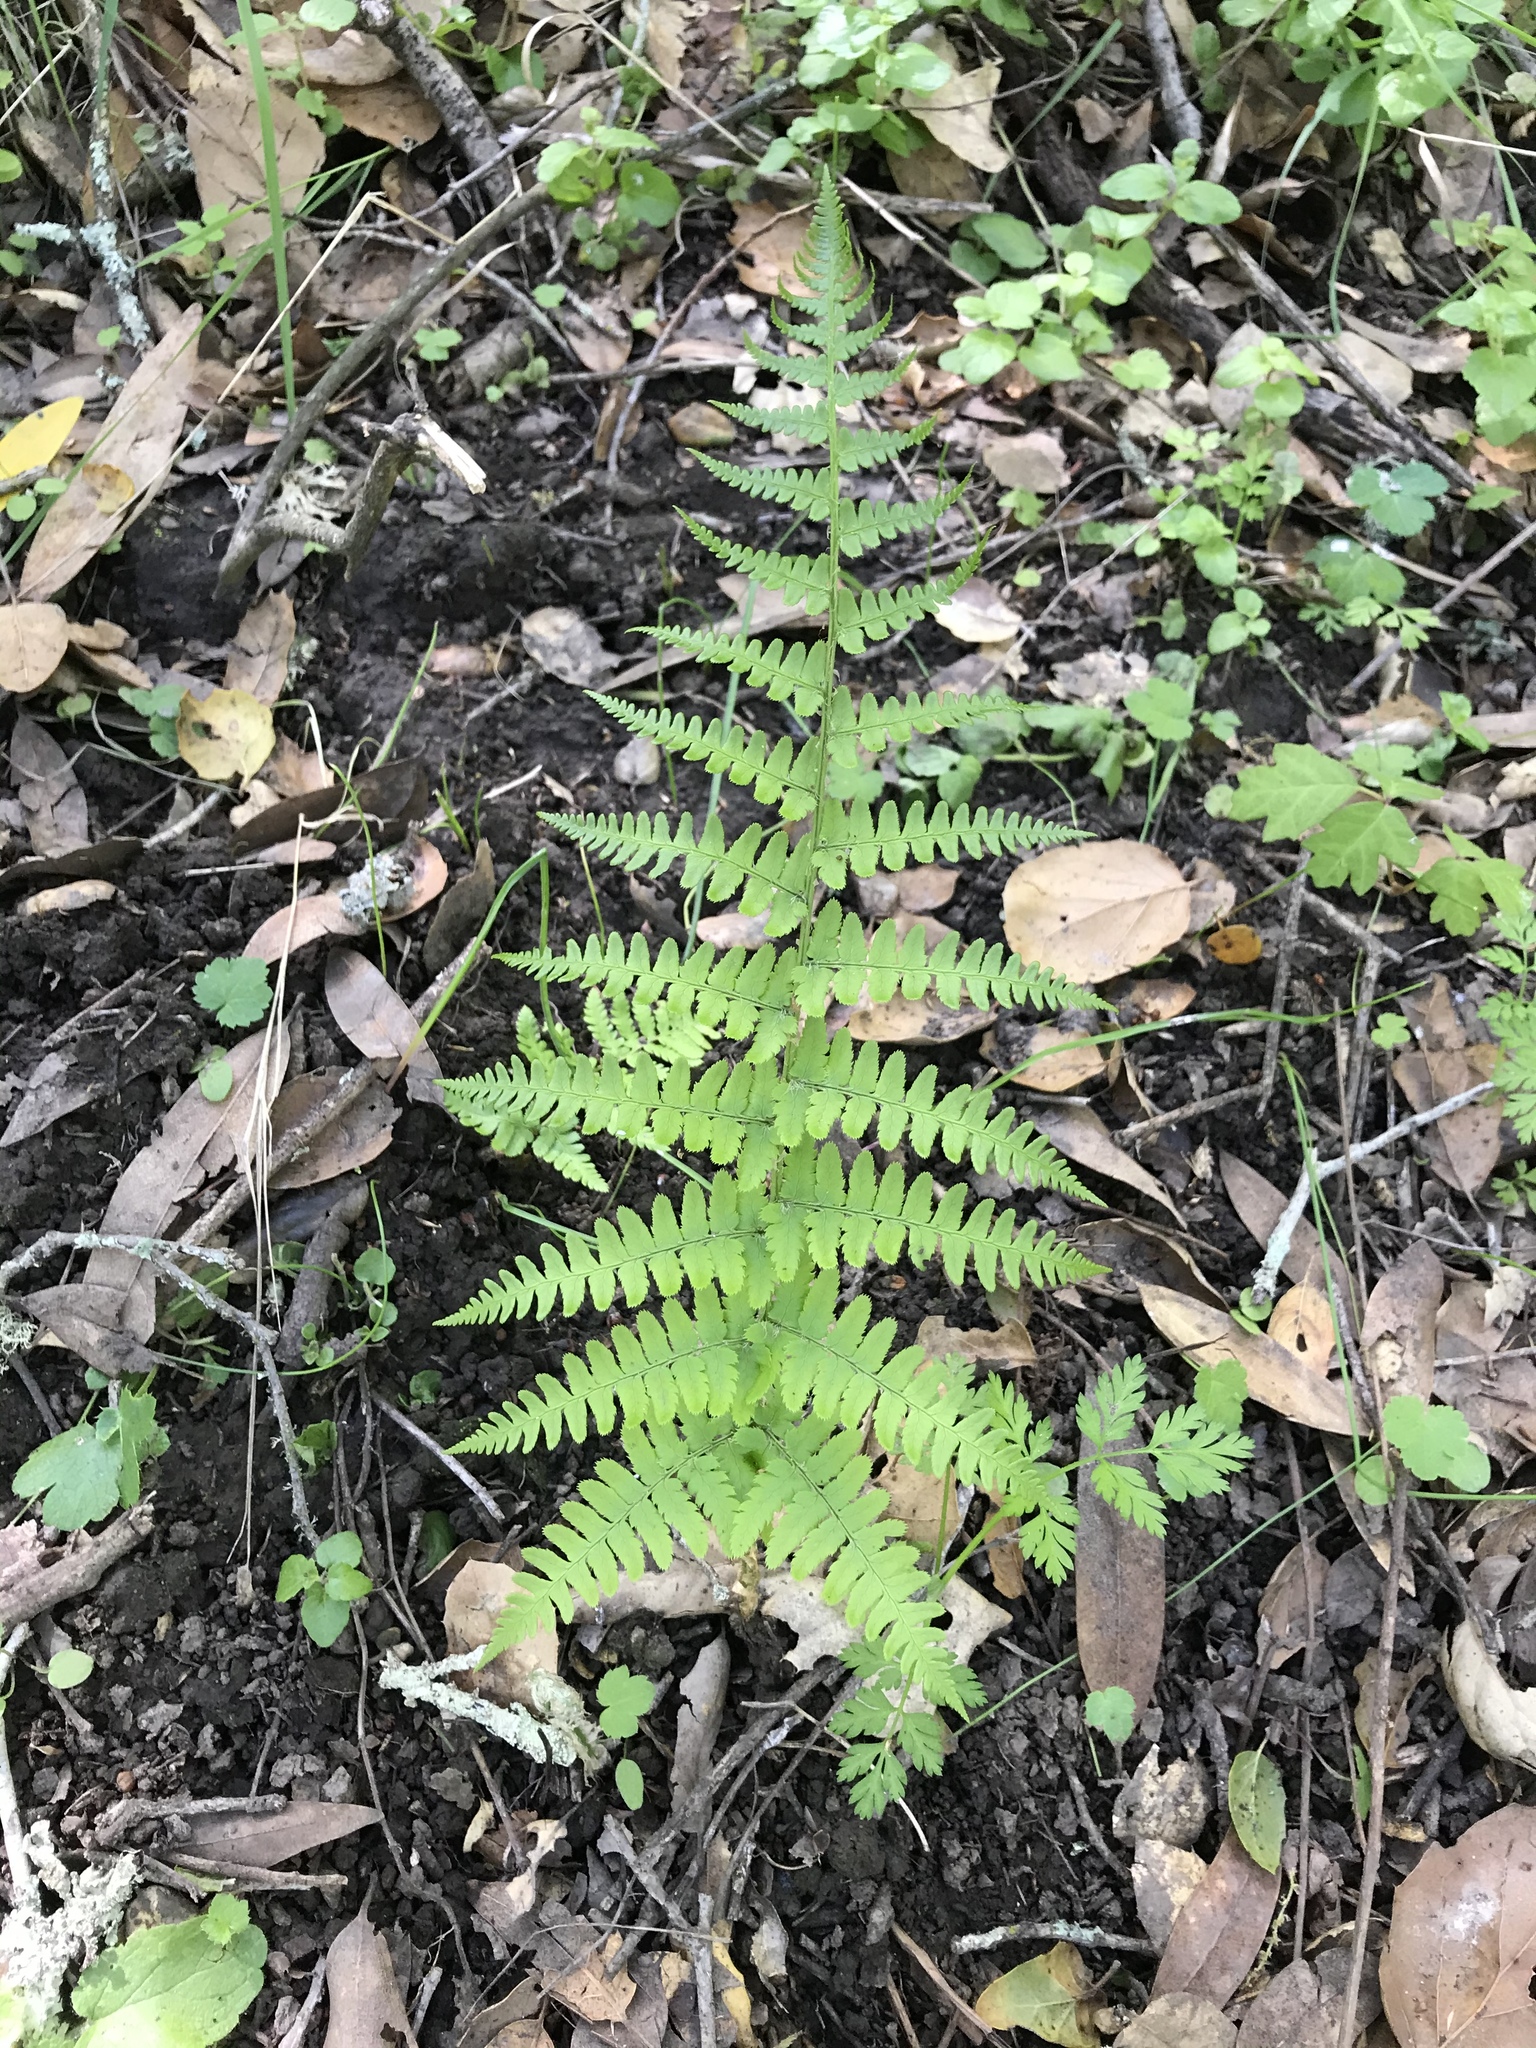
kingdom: Plantae
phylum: Tracheophyta
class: Polypodiopsida
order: Polypodiales
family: Dryopteridaceae
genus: Dryopteris
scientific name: Dryopteris arguta
